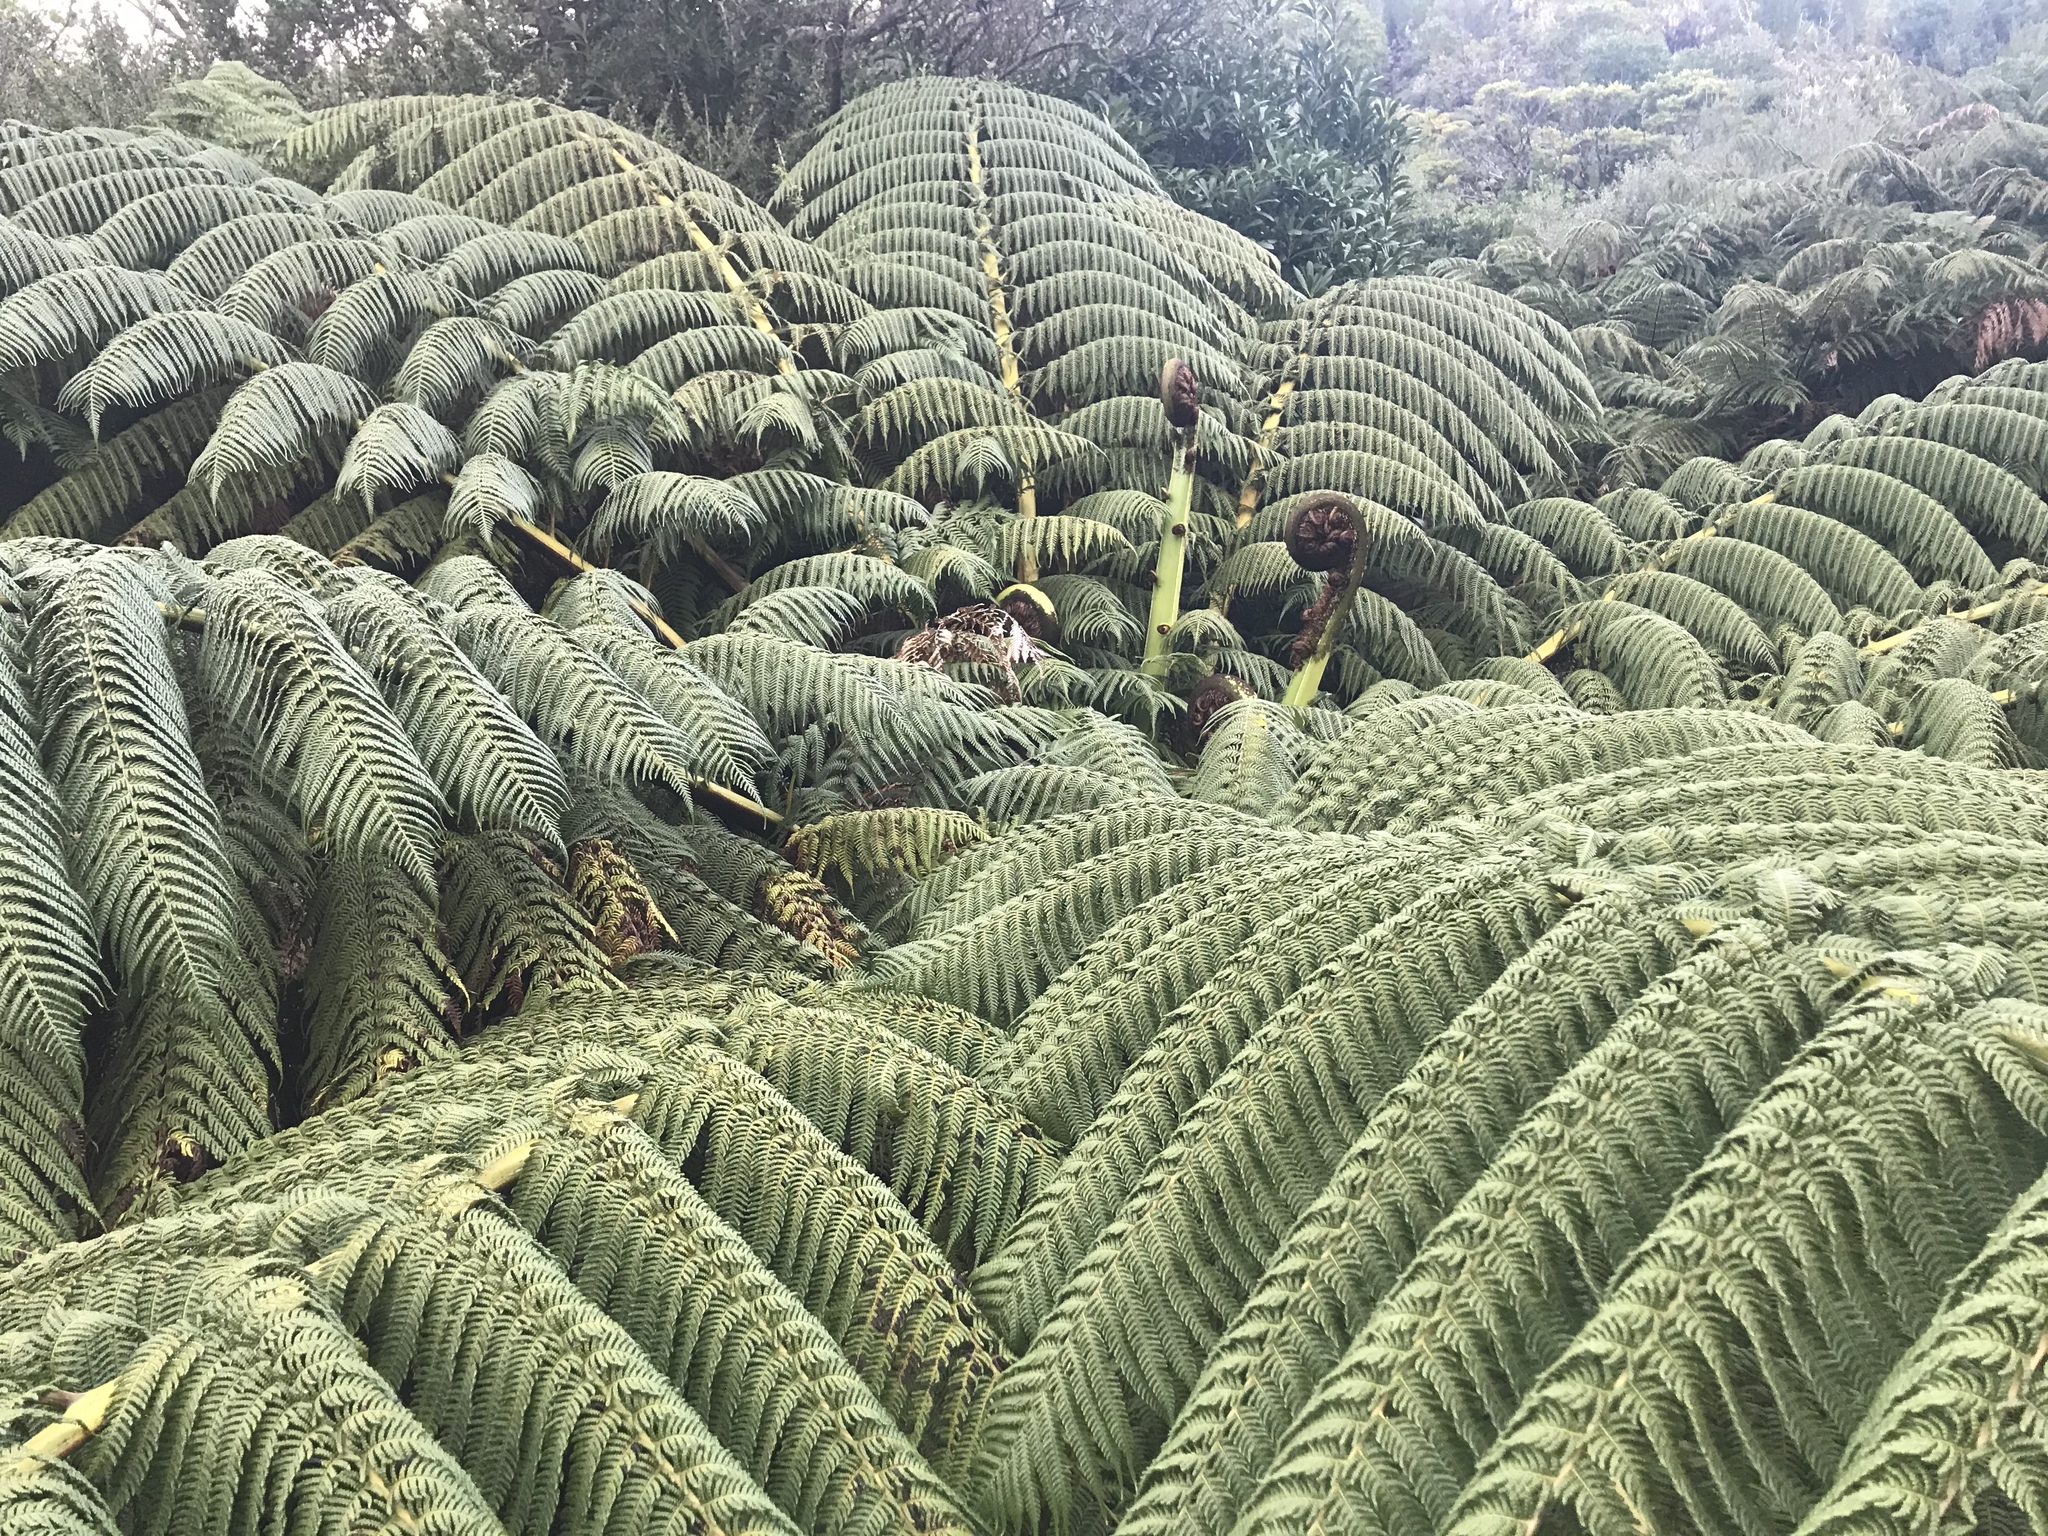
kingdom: Plantae
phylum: Tracheophyta
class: Polypodiopsida
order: Cyatheales
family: Cyatheaceae
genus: Sphaeropteris
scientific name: Sphaeropteris medullaris
